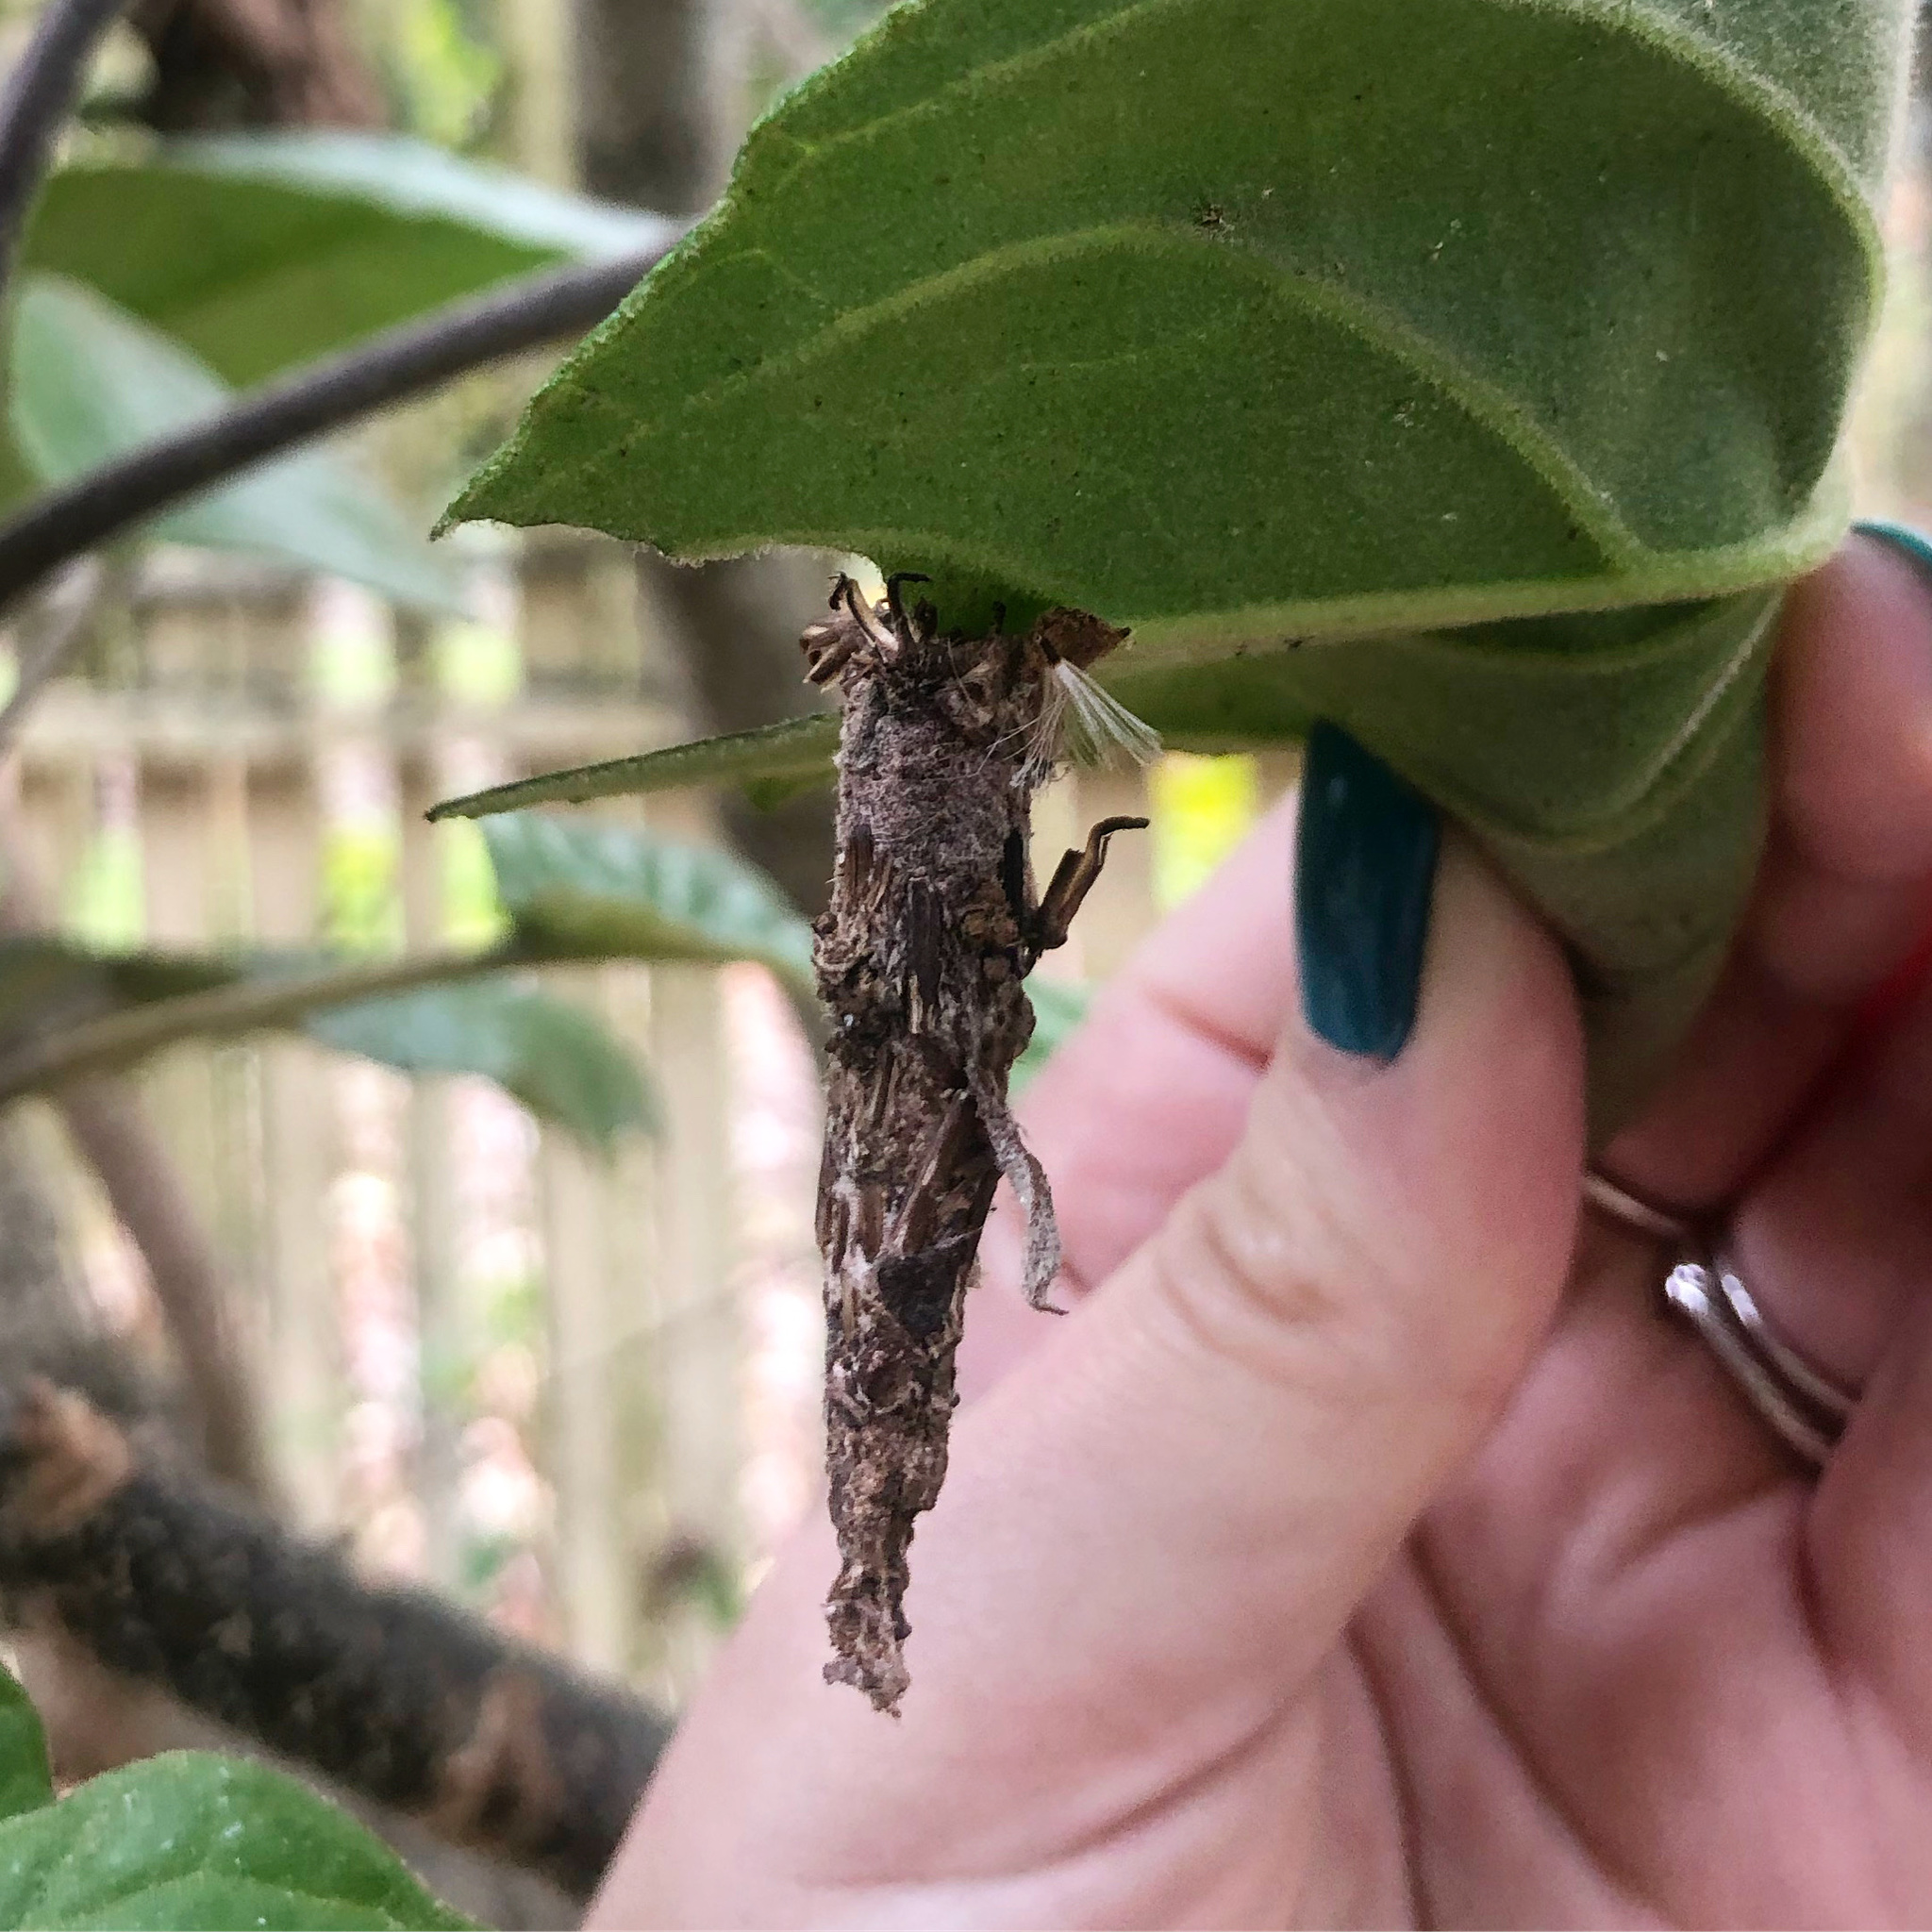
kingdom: Animalia
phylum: Arthropoda
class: Insecta
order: Lepidoptera
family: Psychidae
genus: Liothula
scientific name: Liothula omnivora
